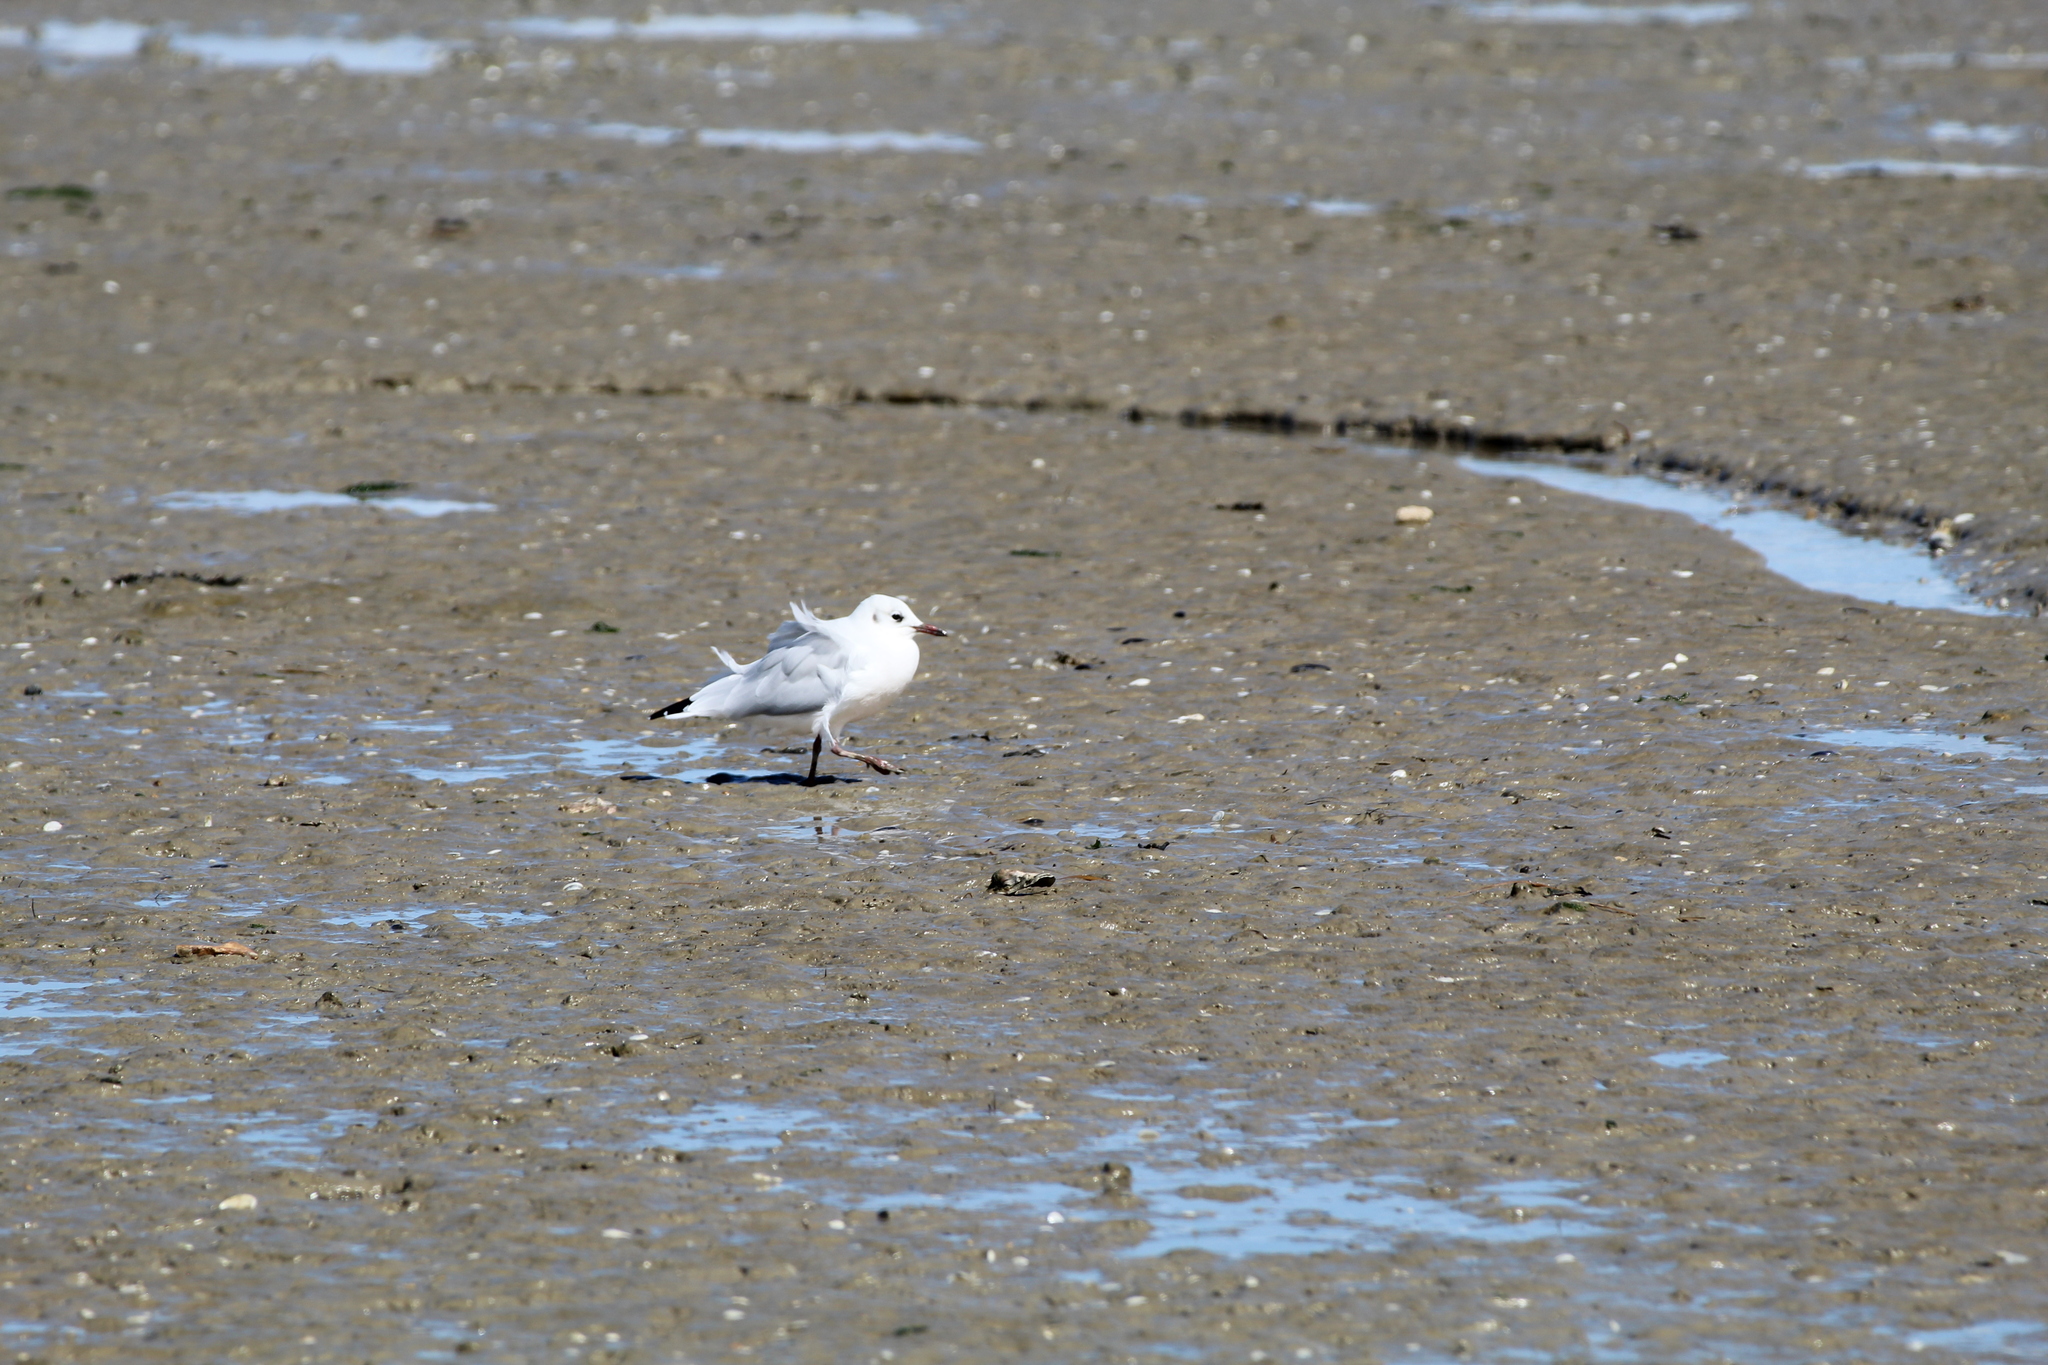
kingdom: Animalia
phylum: Chordata
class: Aves
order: Charadriiformes
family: Laridae
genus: Chroicocephalus
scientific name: Chroicocephalus ridibundus
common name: Black-headed gull
